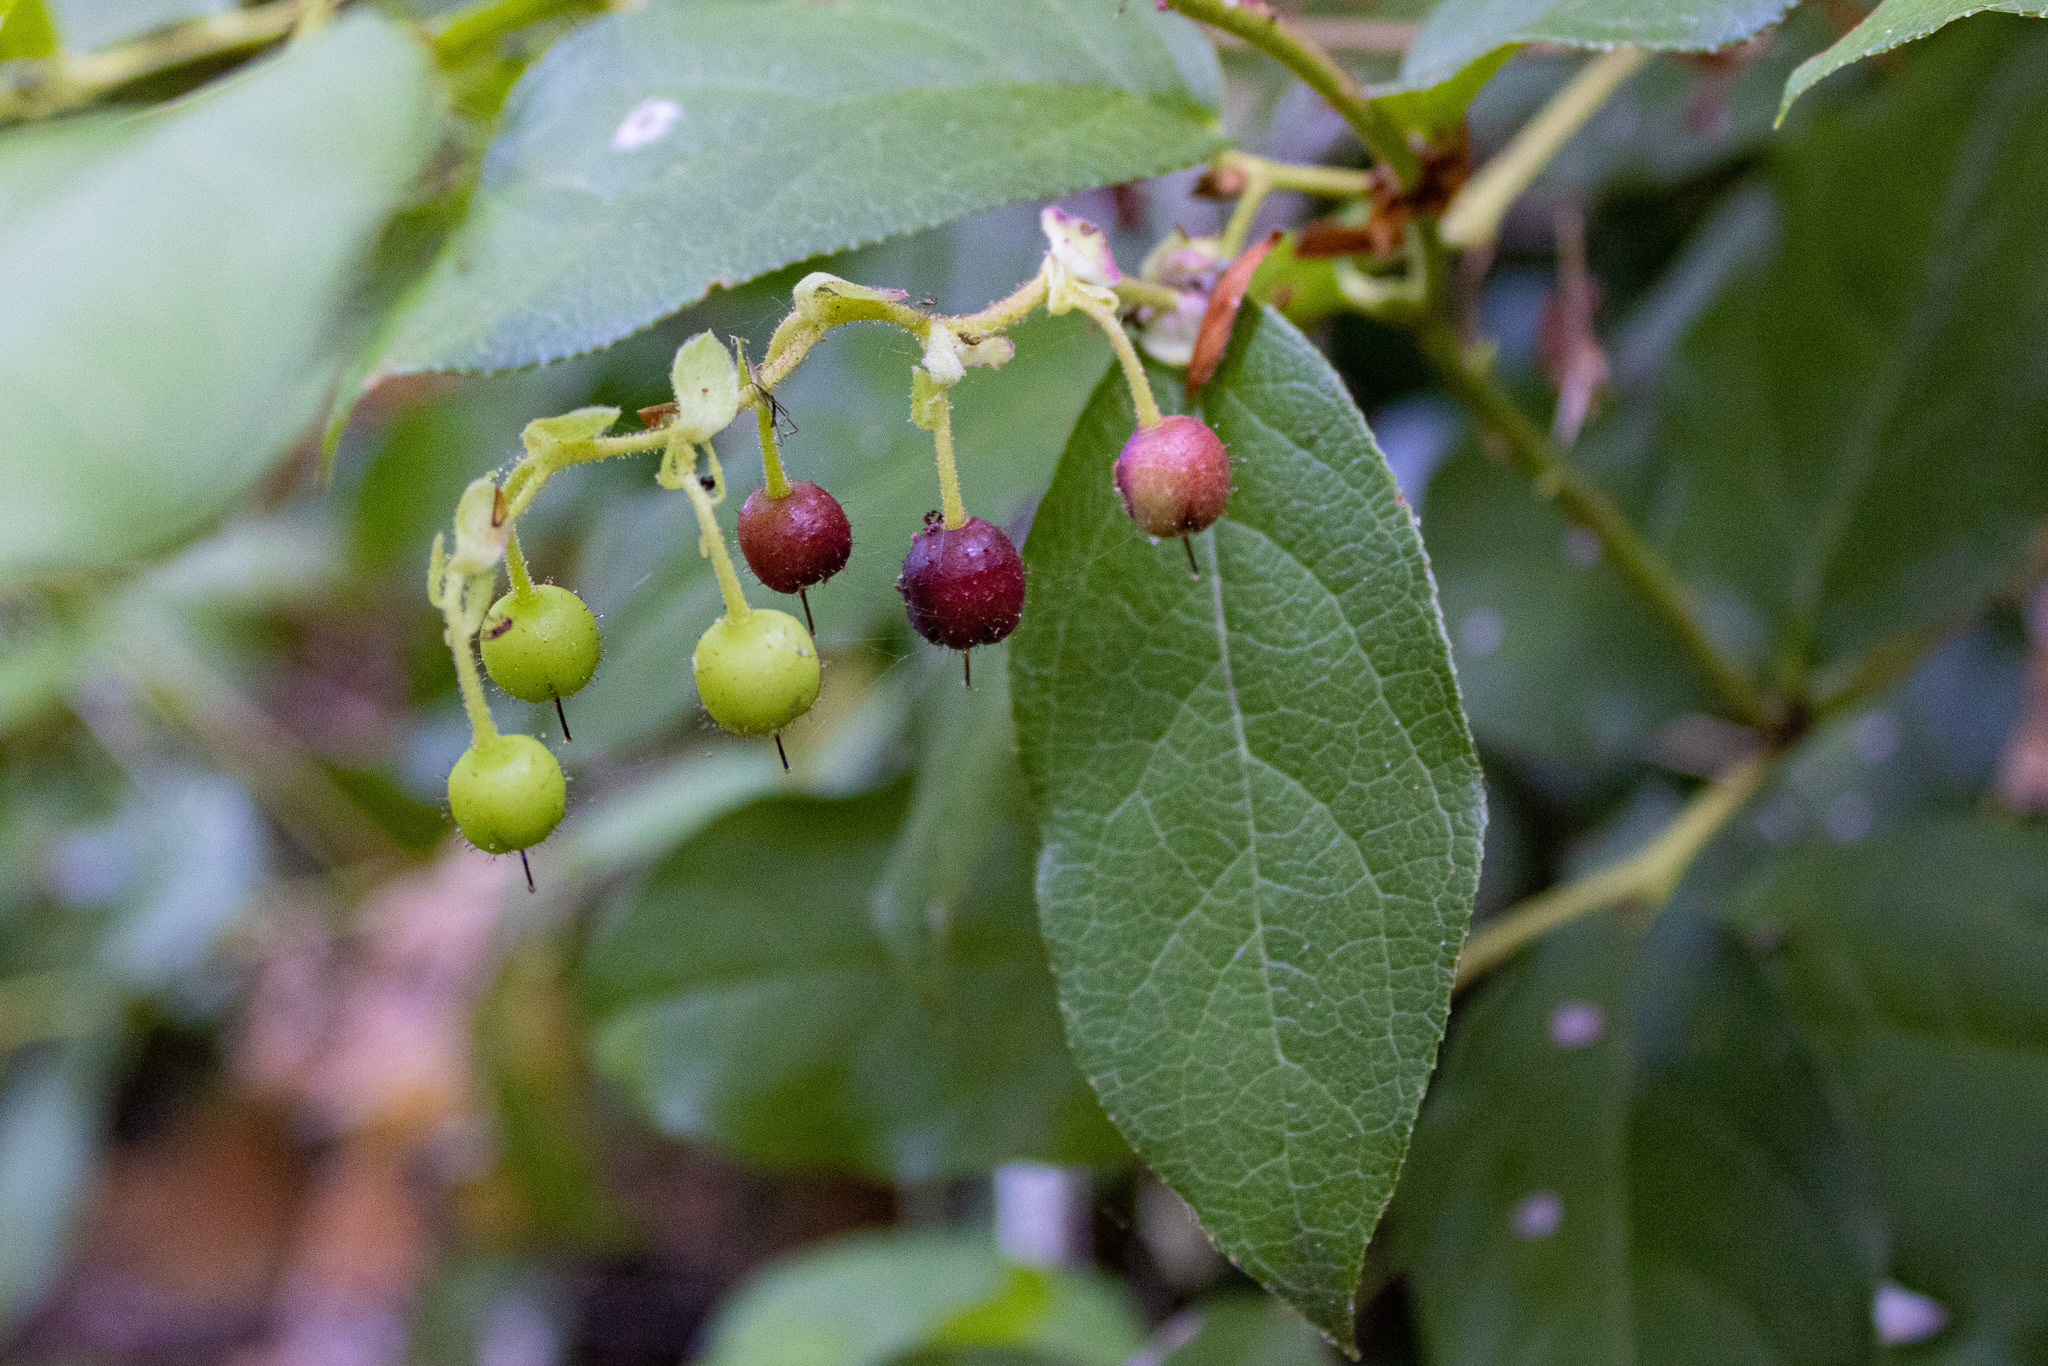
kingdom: Plantae
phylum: Tracheophyta
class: Magnoliopsida
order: Ericales
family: Ericaceae
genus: Gaultheria
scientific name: Gaultheria shallon
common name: Shallon
